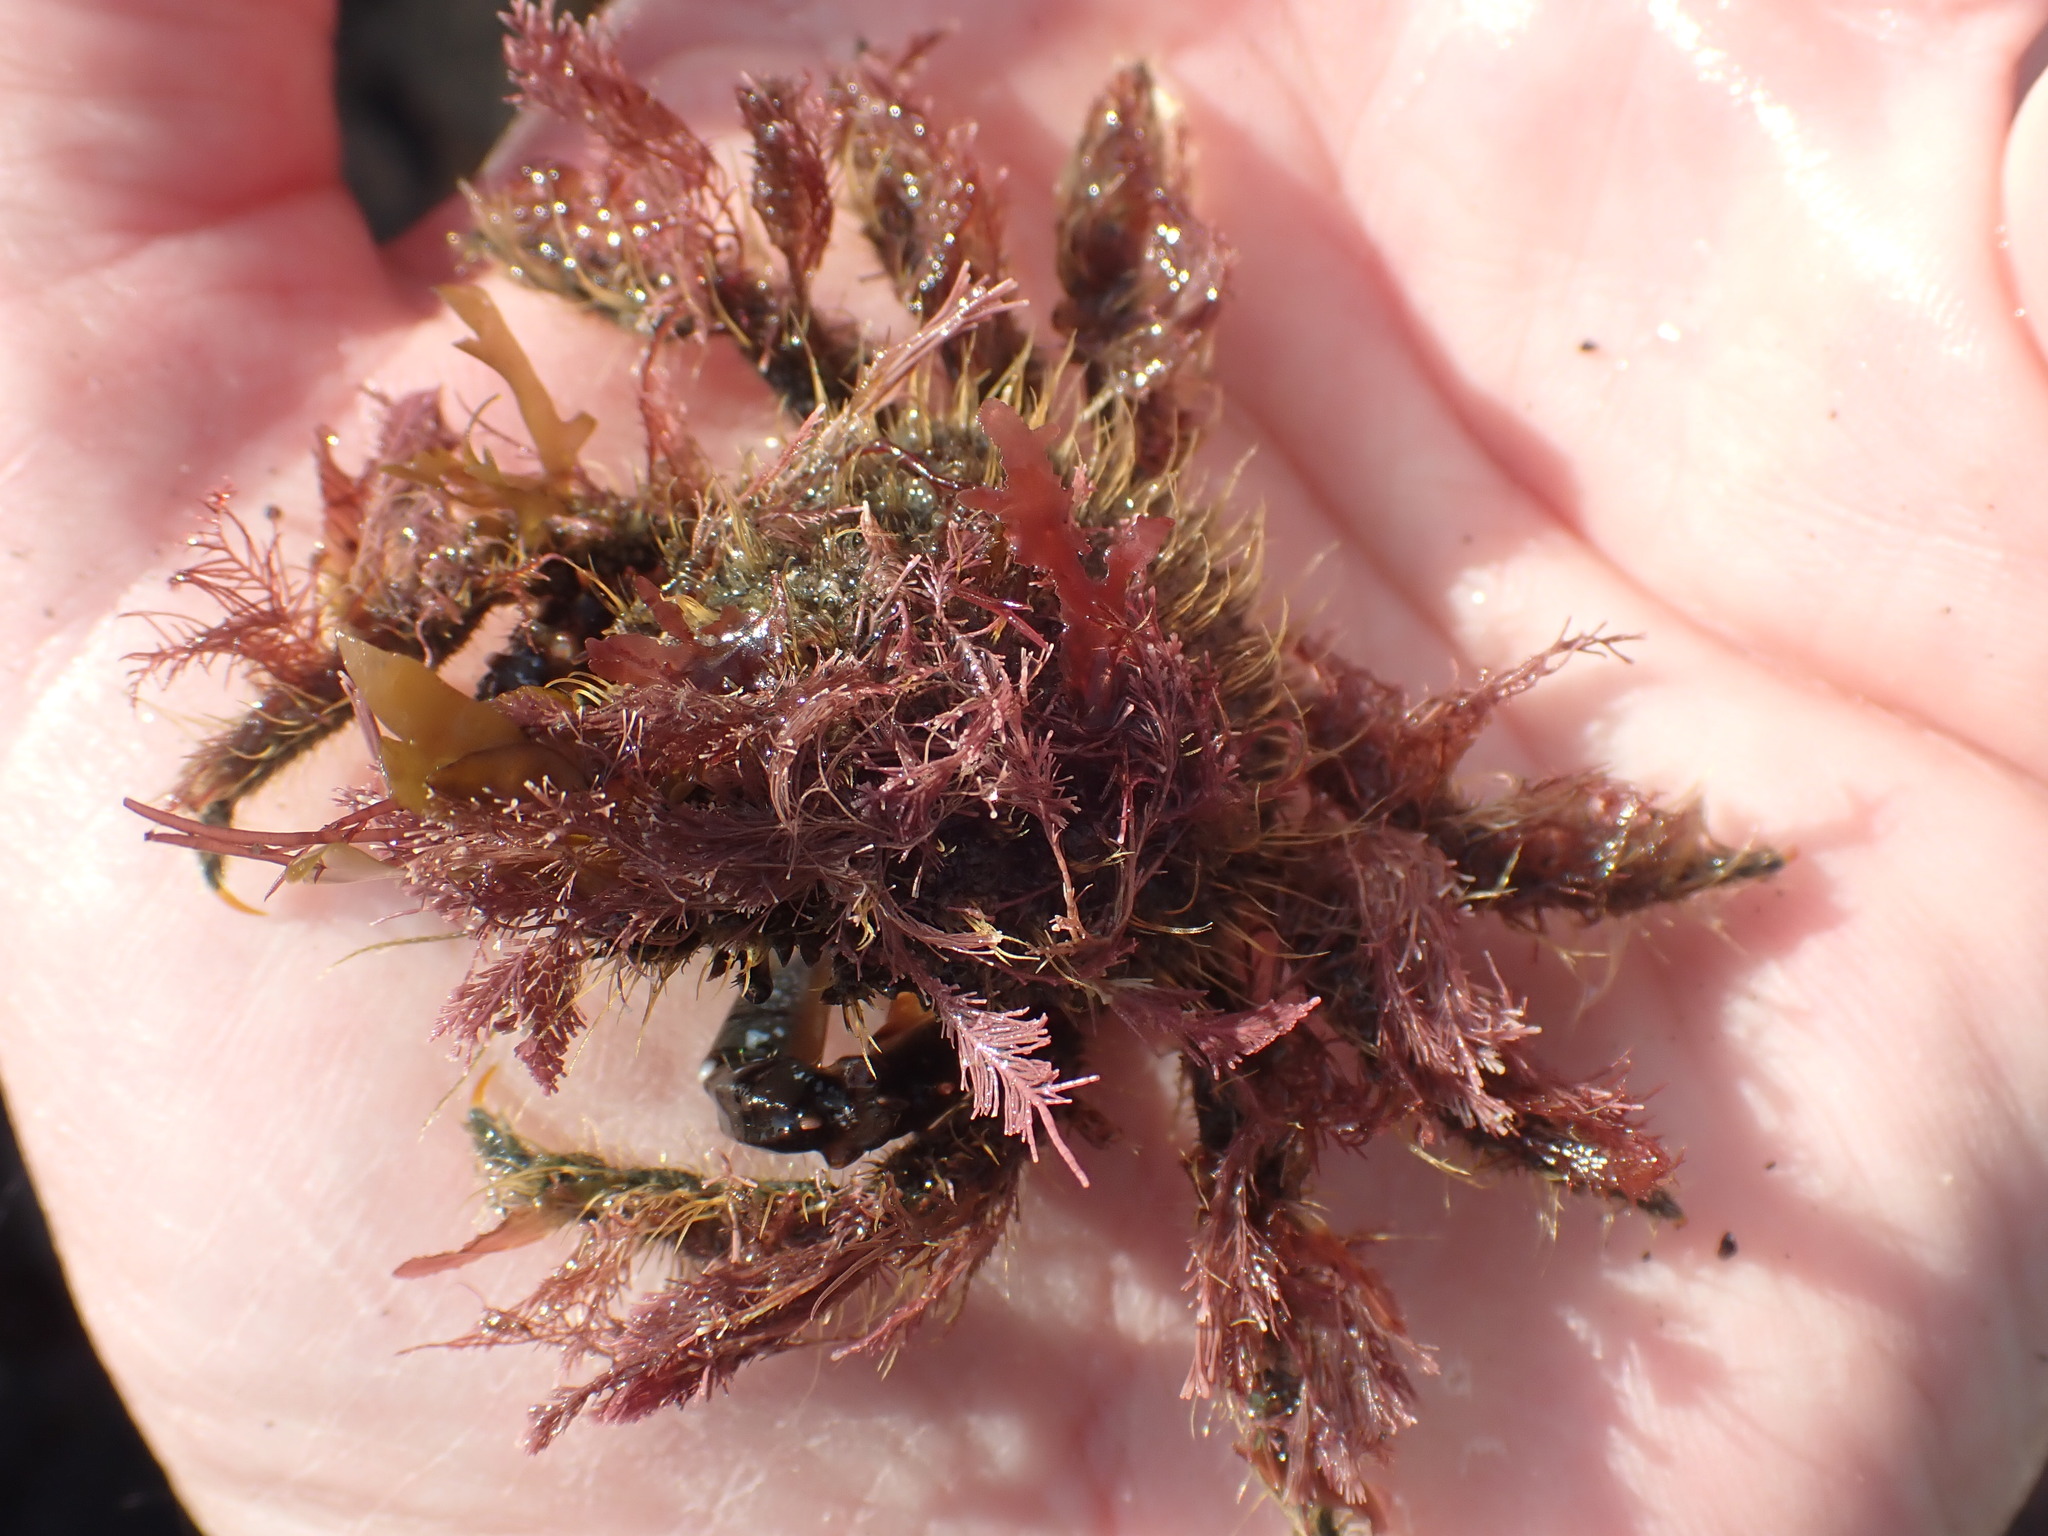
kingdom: Animalia
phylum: Arthropoda
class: Malacostraca
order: Decapoda
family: Majidae
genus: Notomithrax
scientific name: Notomithrax ursus
